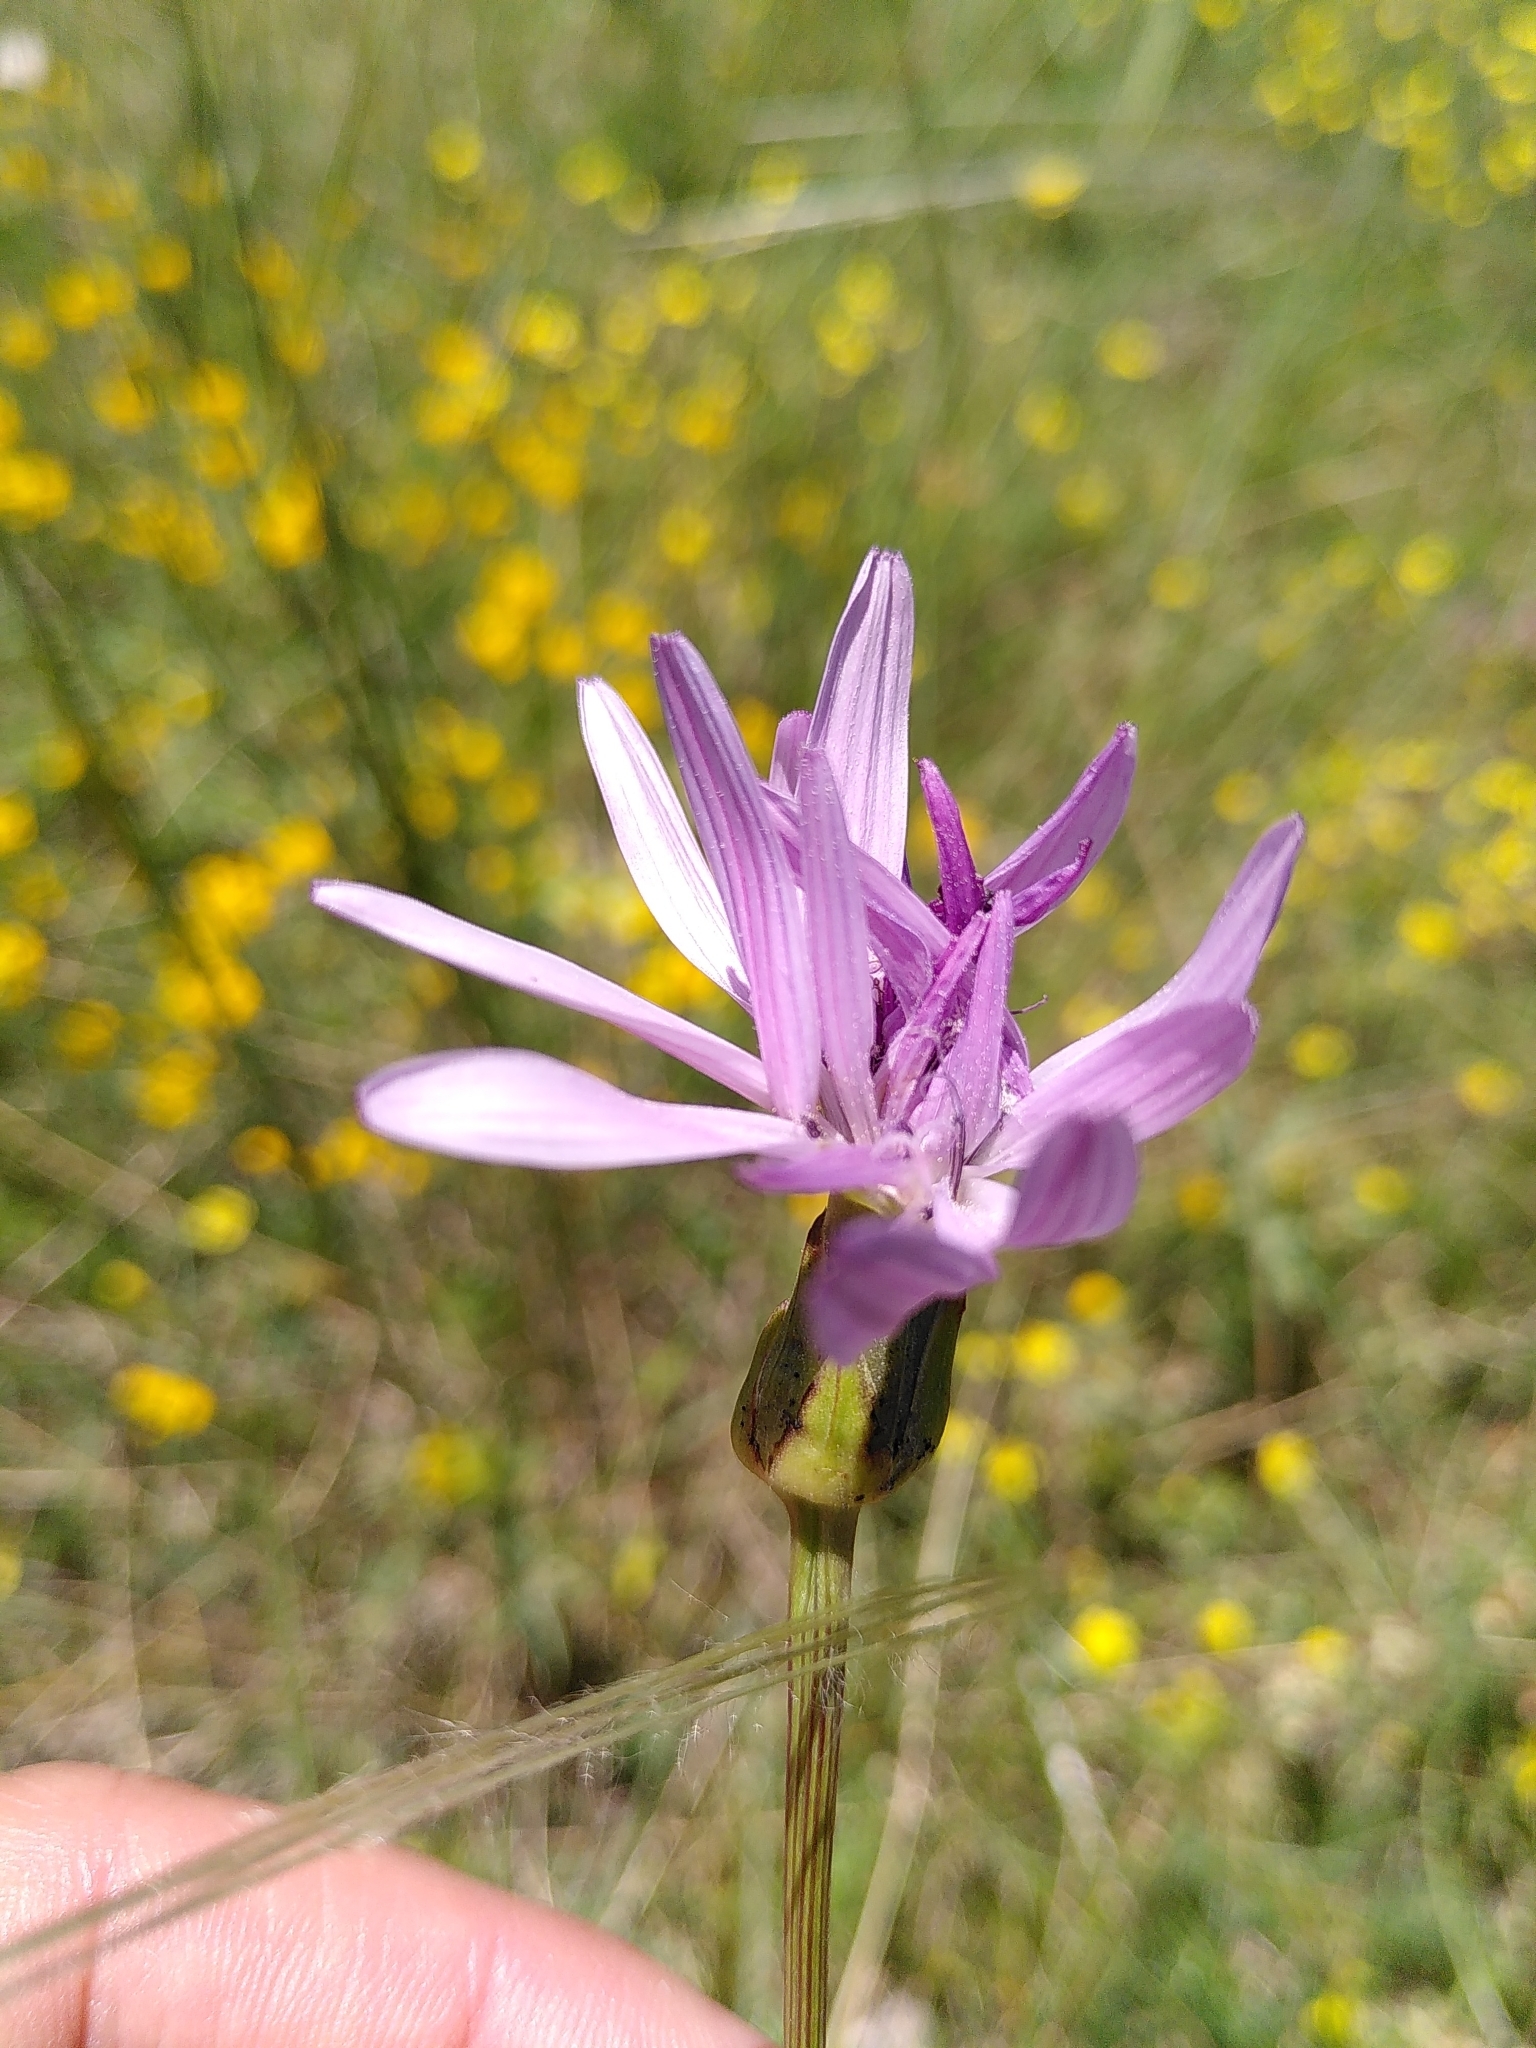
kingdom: Plantae
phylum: Tracheophyta
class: Magnoliopsida
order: Asterales
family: Asteraceae
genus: Scorzonera
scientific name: Scorzonera purpurea
